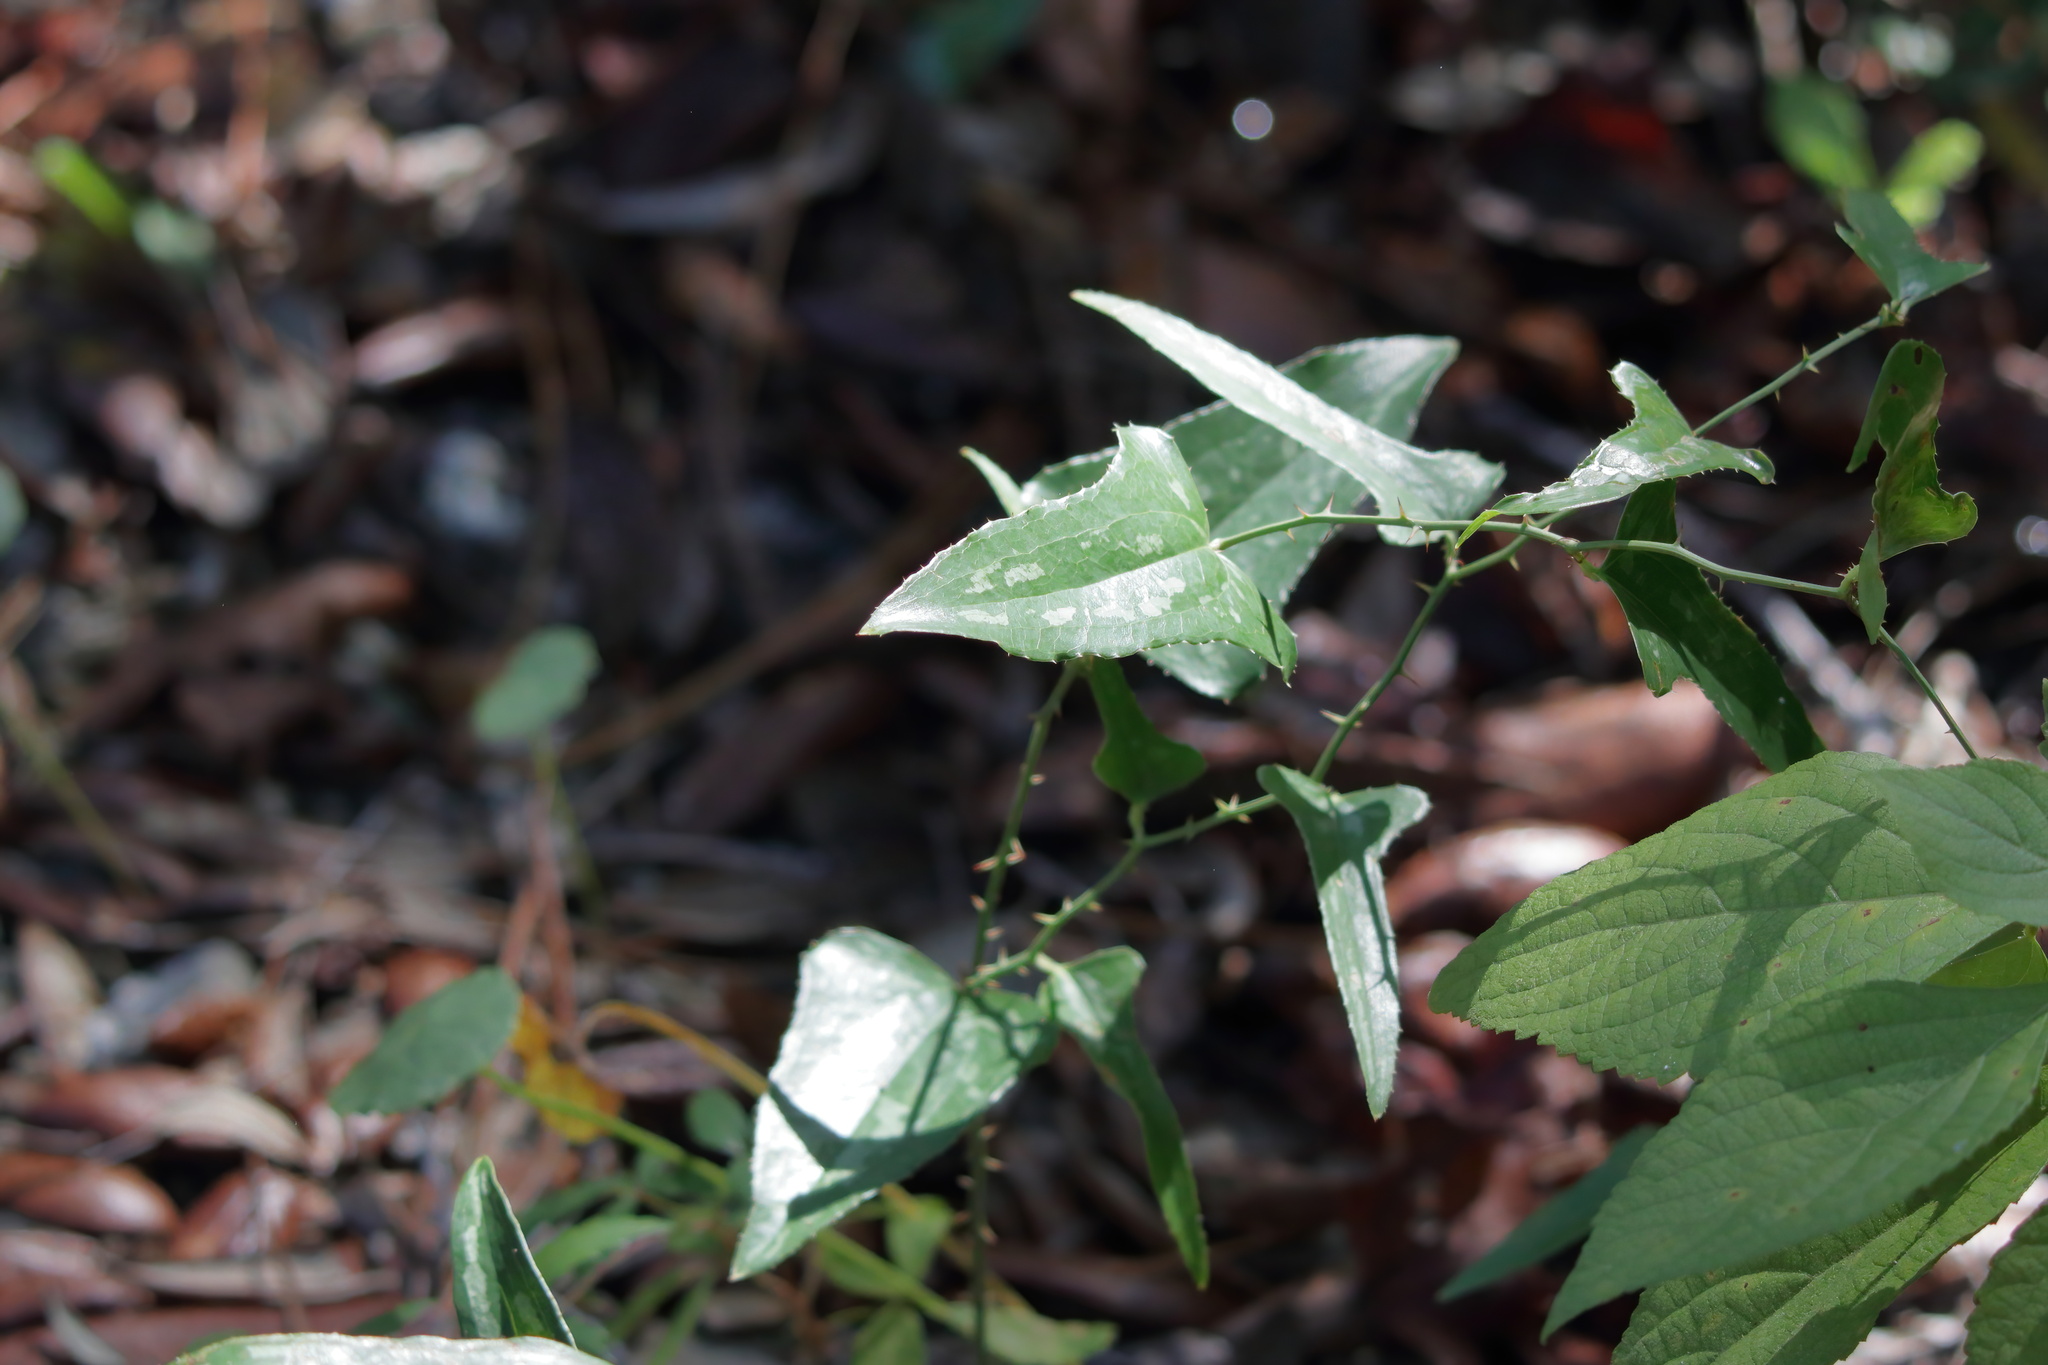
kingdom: Plantae
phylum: Tracheophyta
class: Liliopsida
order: Liliales
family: Smilacaceae
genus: Smilax
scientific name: Smilax bona-nox
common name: Catbrier
